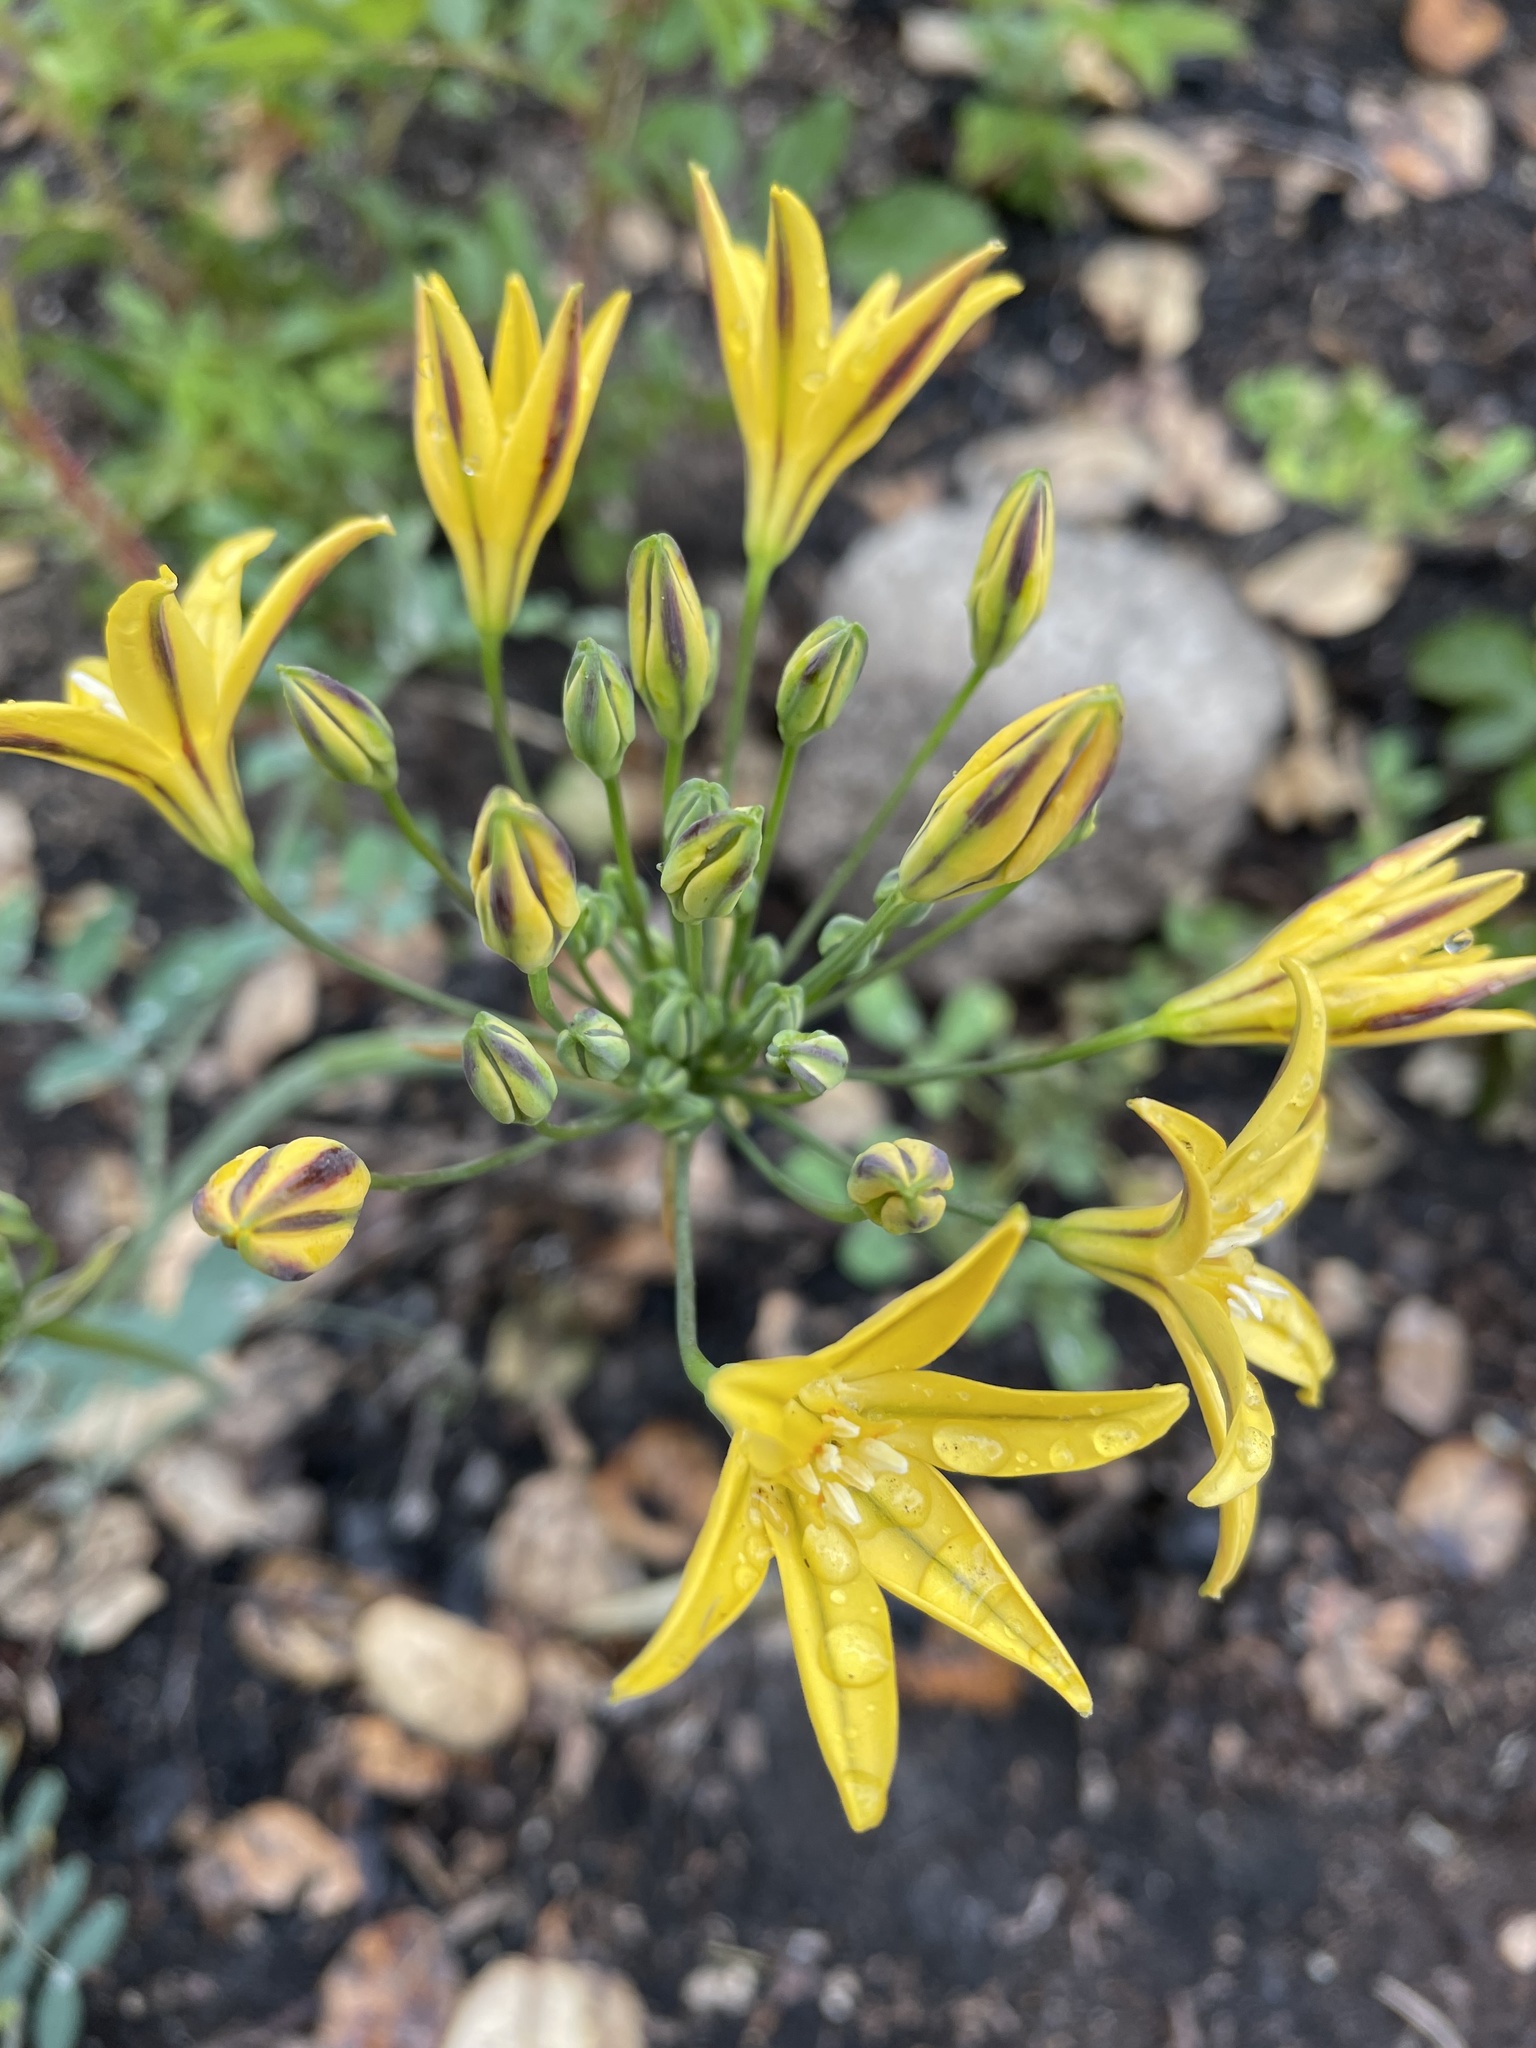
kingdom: Plantae
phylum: Tracheophyta
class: Liliopsida
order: Asparagales
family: Asparagaceae
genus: Triteleia
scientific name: Triteleia ixioides
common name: Yellow-brodiaea
